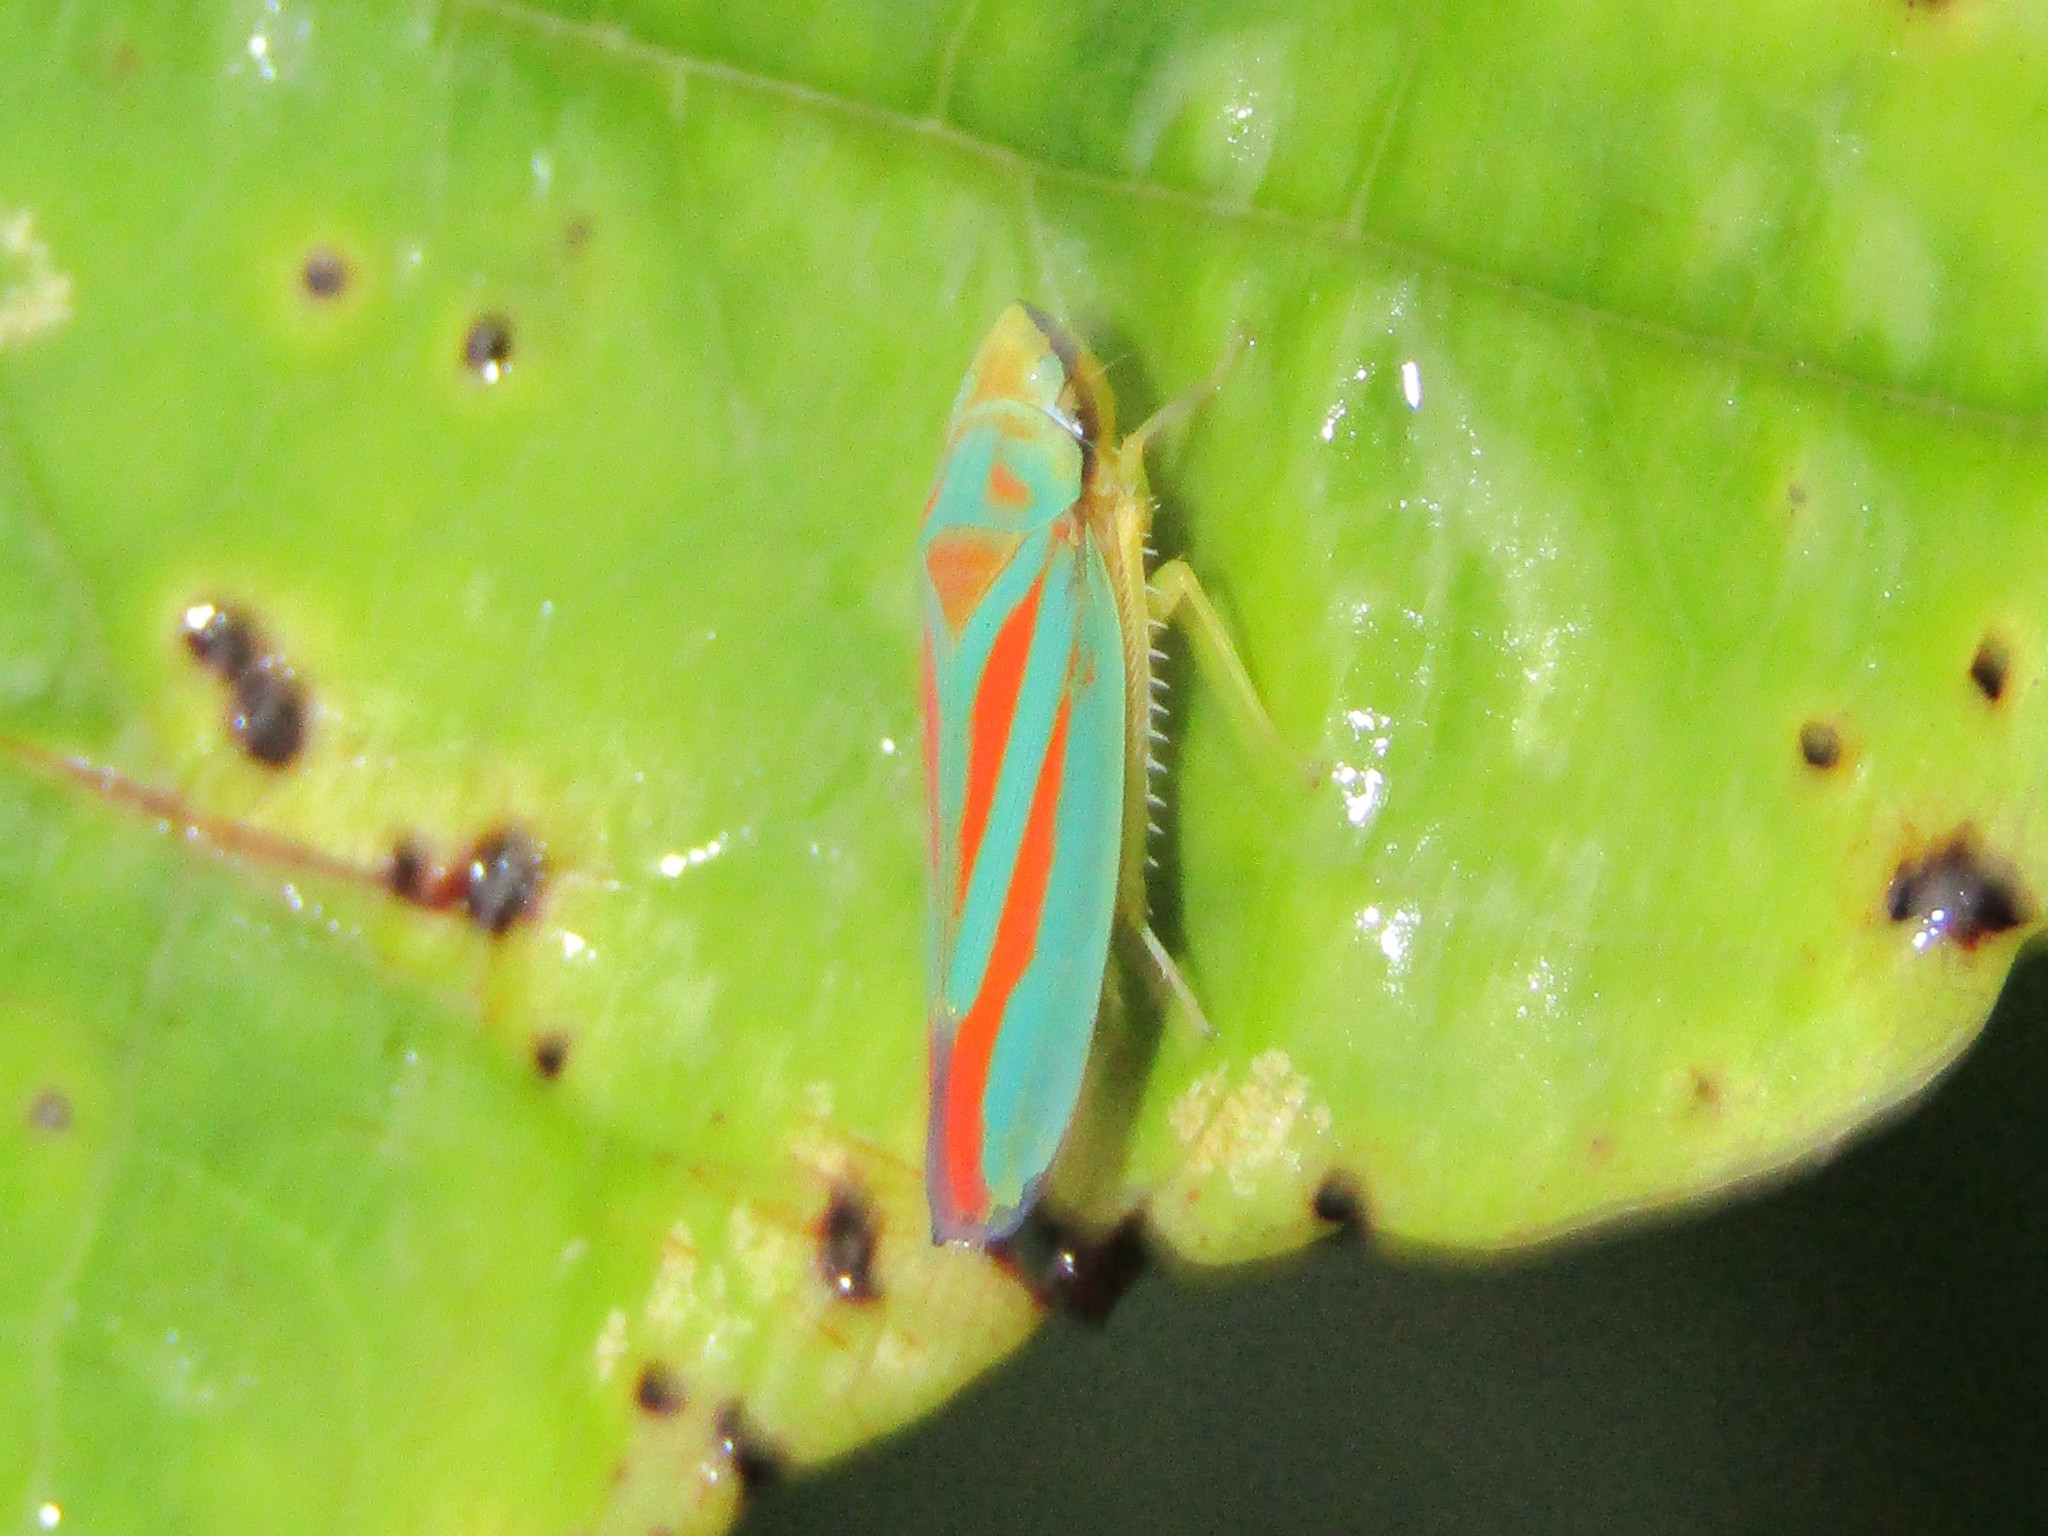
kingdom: Animalia
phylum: Arthropoda
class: Insecta
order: Hemiptera
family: Cicadellidae
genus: Graphocephala
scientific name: Graphocephala fennahi
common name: Rhododendron leafhopper
